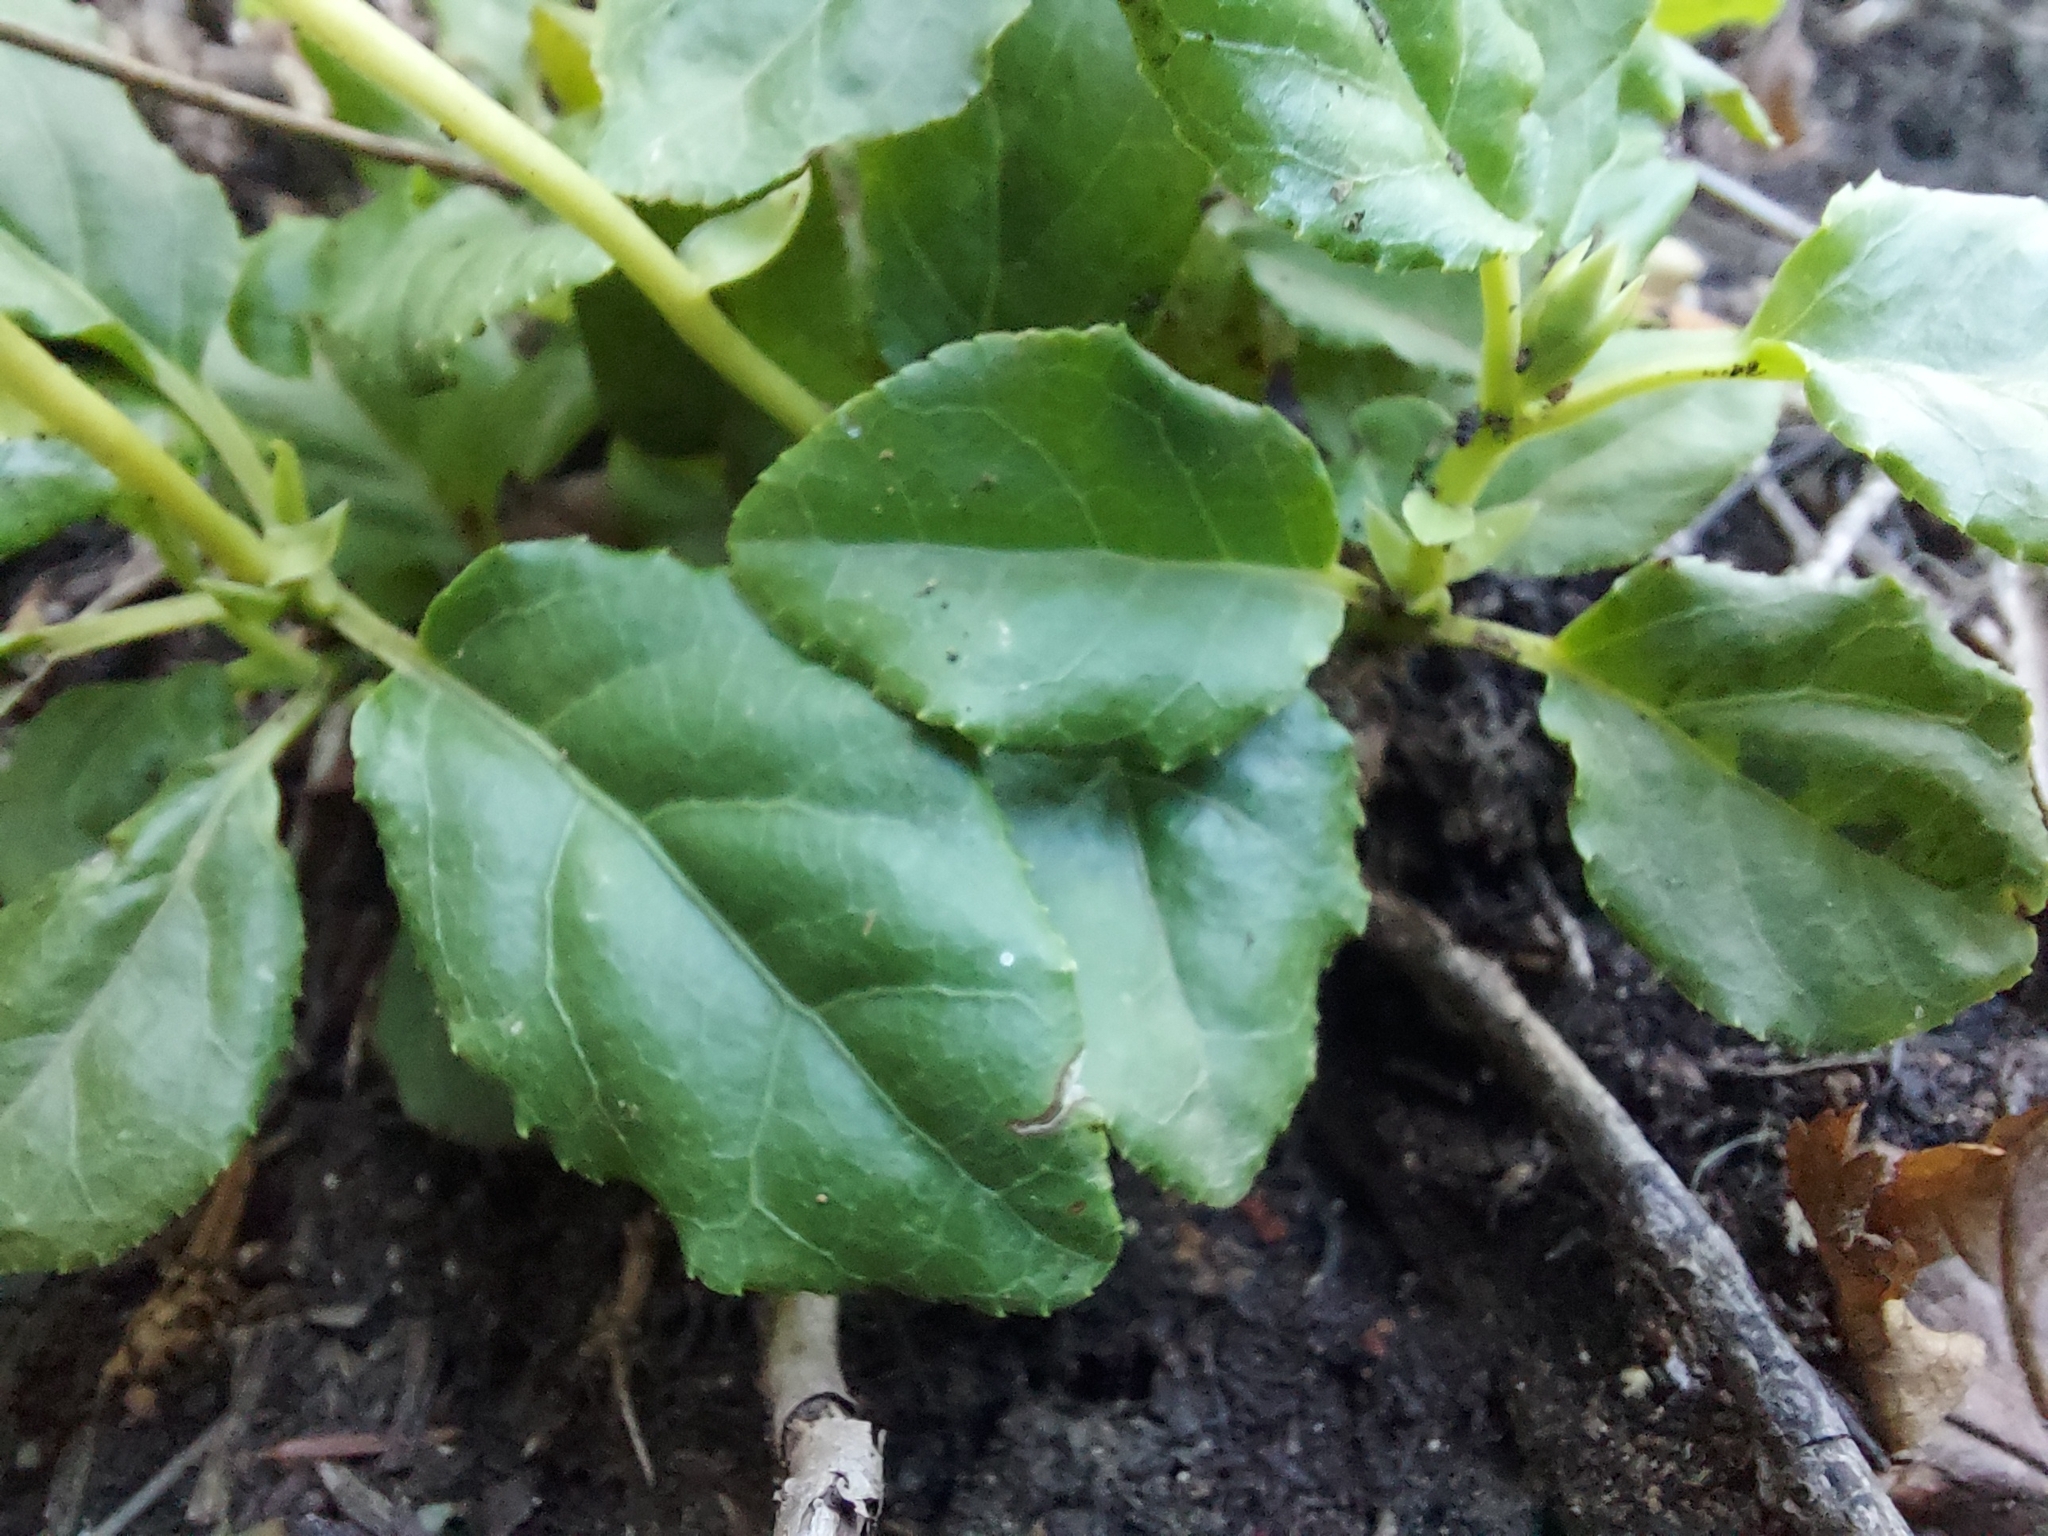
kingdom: Plantae
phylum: Tracheophyta
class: Magnoliopsida
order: Ericales
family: Ericaceae
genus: Orthilia
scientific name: Orthilia secunda
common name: One-sided orthilia
